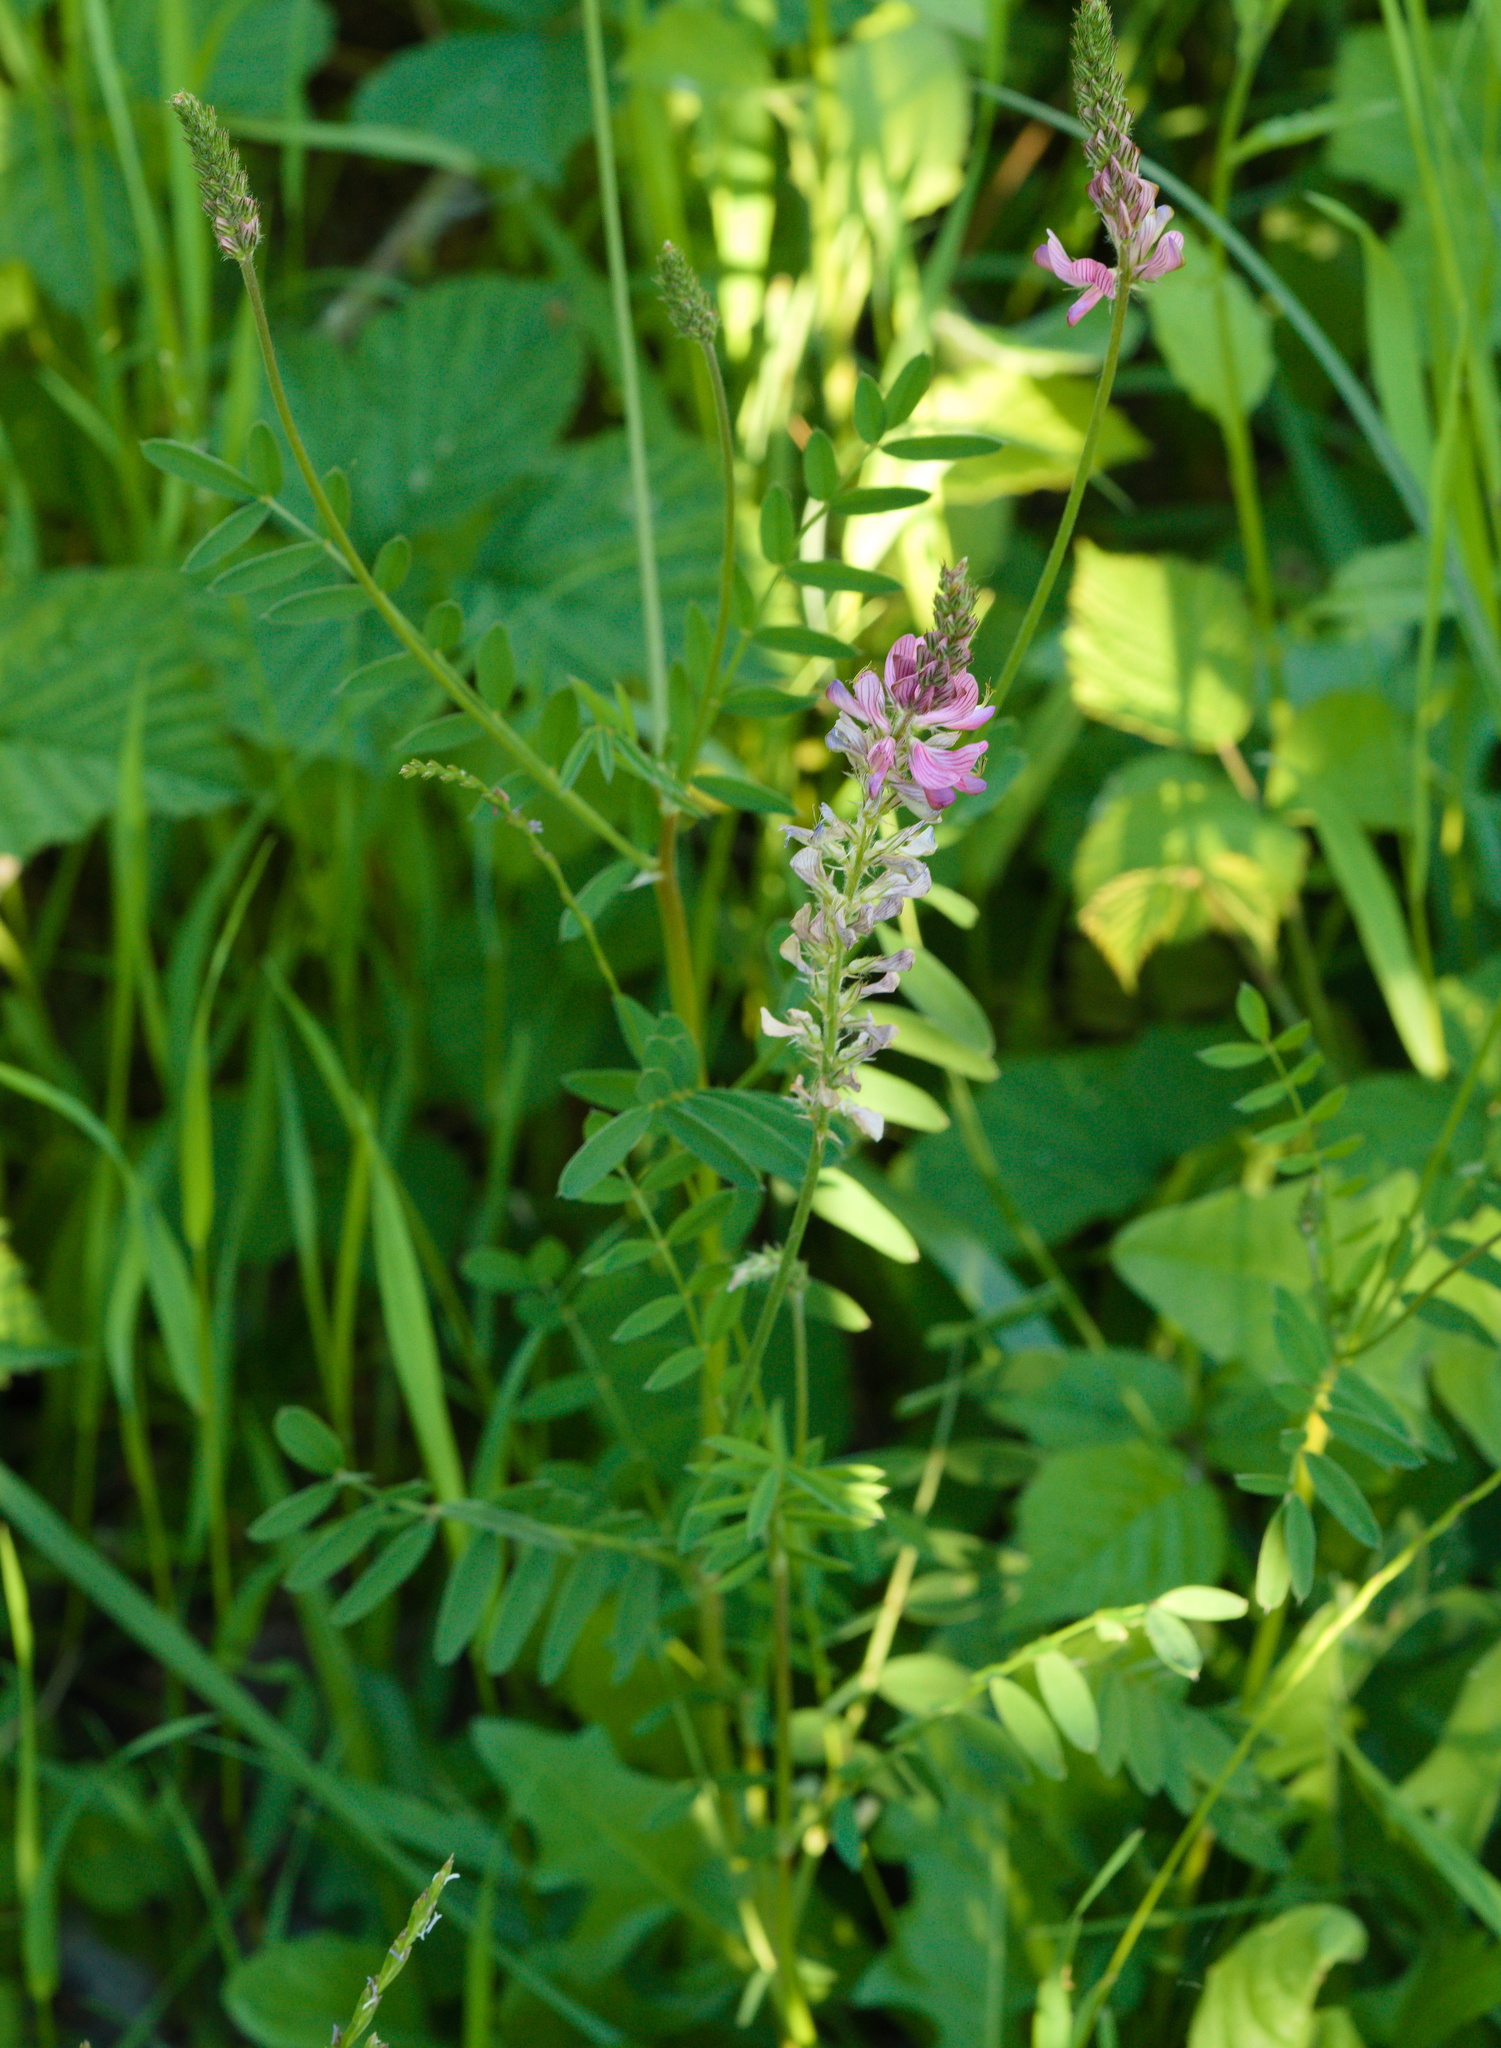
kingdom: Plantae
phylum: Tracheophyta
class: Magnoliopsida
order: Fabales
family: Fabaceae
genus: Onobrychis
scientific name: Onobrychis viciifolia
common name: Sainfoin
